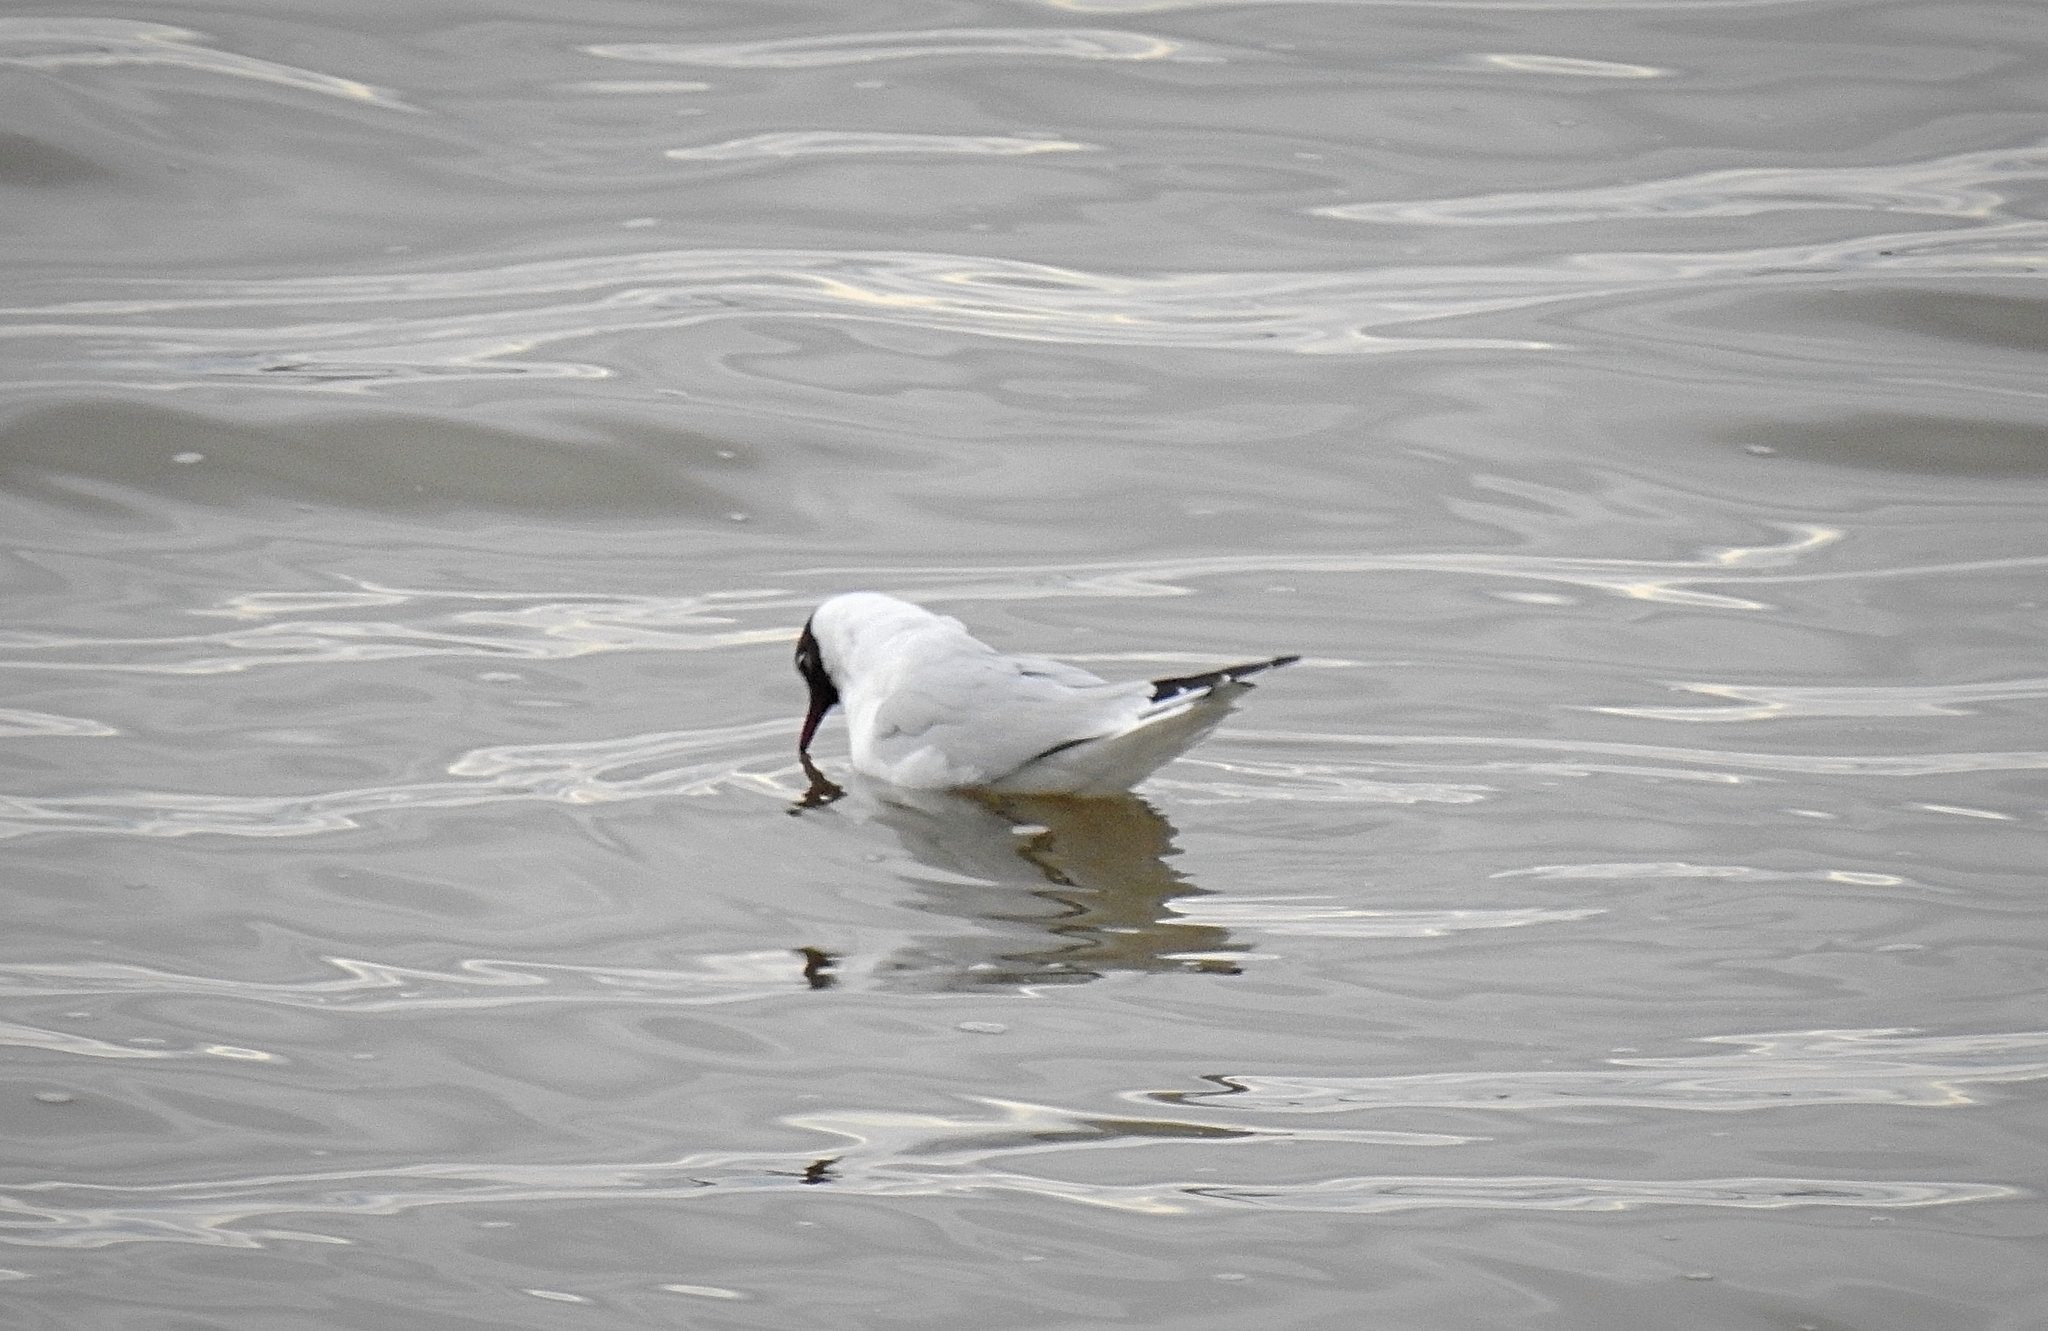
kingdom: Animalia
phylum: Chordata
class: Aves
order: Charadriiformes
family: Laridae
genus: Chroicocephalus
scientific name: Chroicocephalus ridibundus
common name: Black-headed gull
